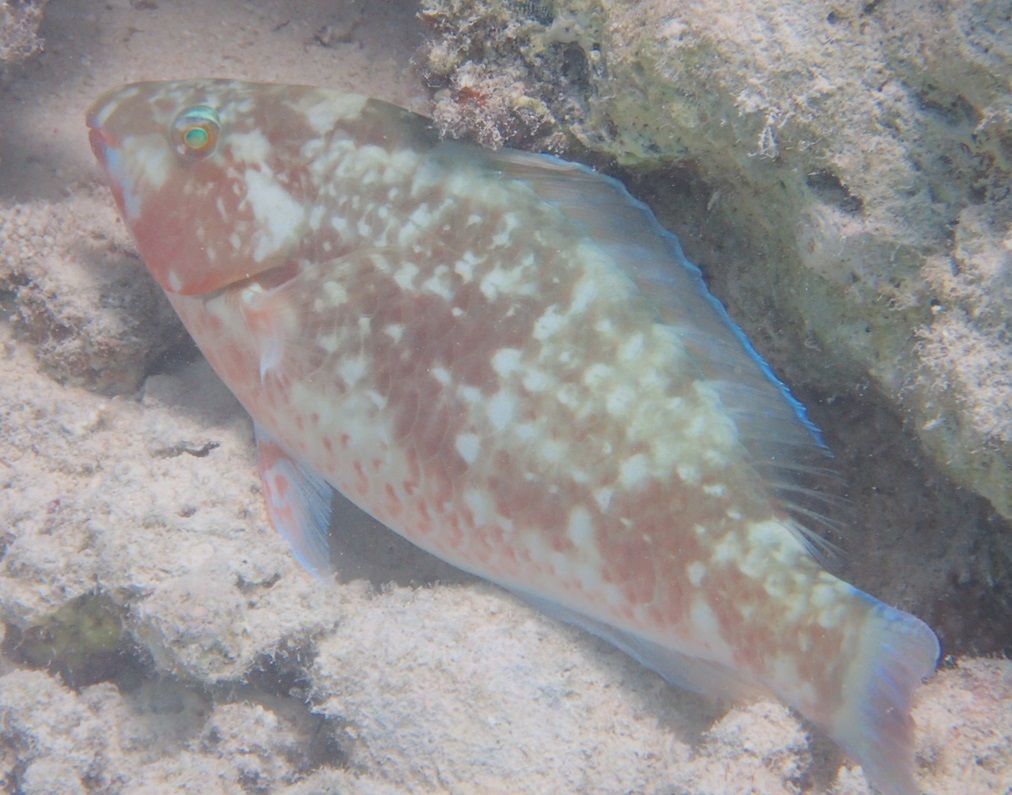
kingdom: Animalia
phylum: Chordata
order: Perciformes
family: Scaridae
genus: Hipposcarus
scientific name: Hipposcarus harid
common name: Candelamoa parrotfish
